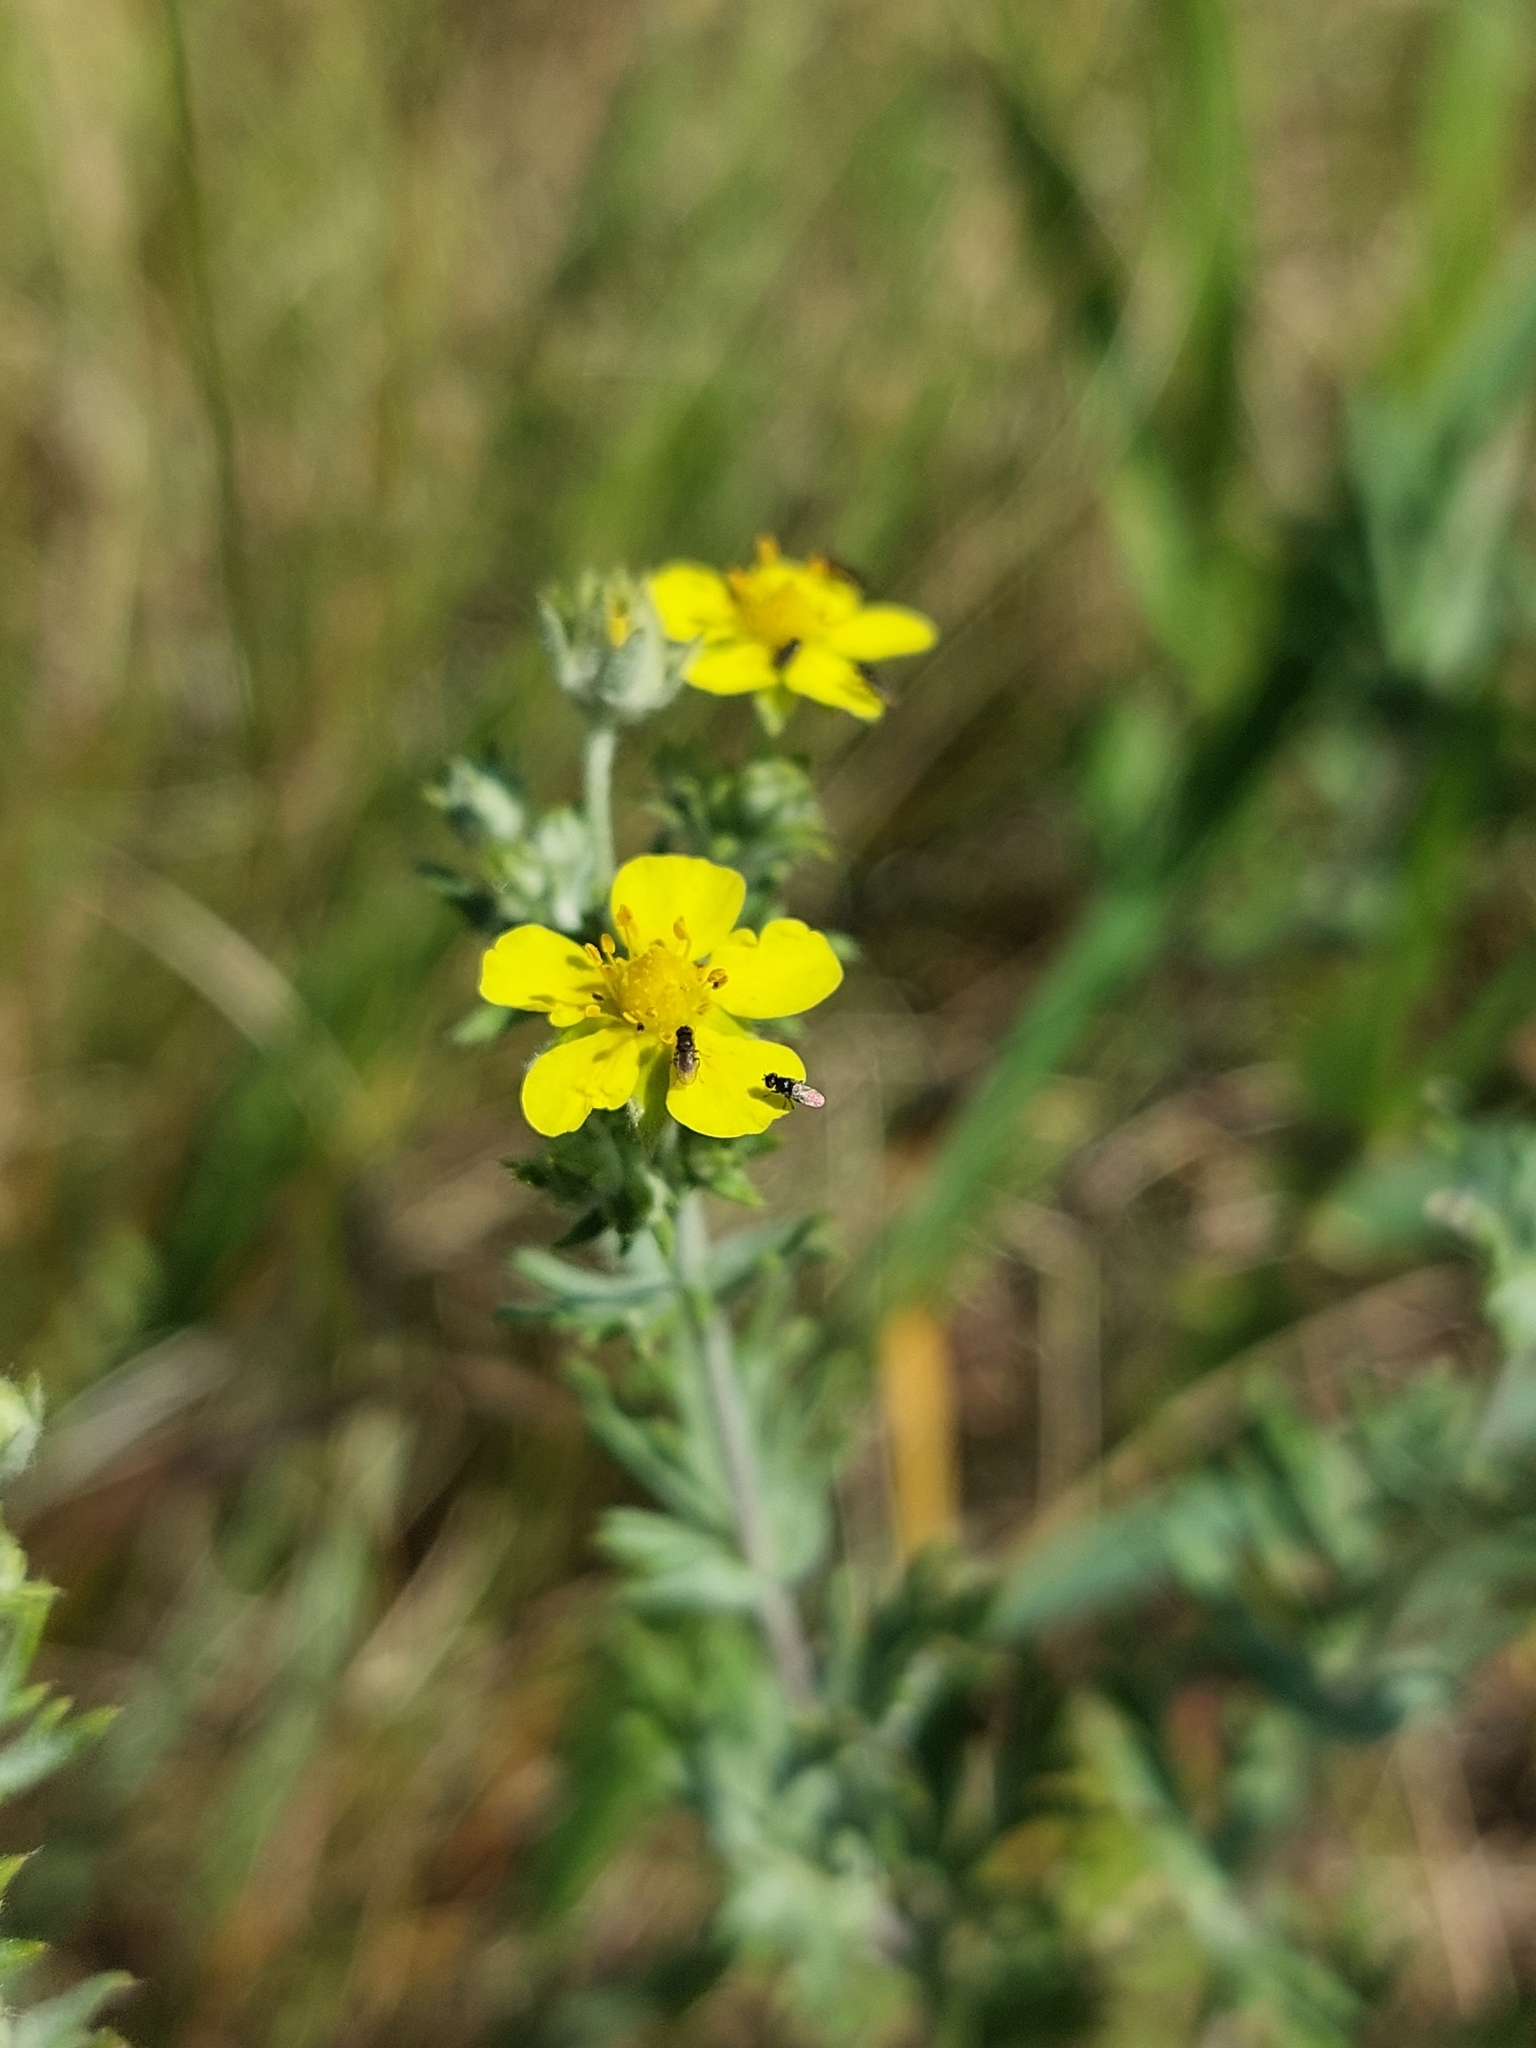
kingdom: Plantae
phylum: Tracheophyta
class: Magnoliopsida
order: Rosales
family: Rosaceae
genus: Potentilla
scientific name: Potentilla argentea
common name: Hoary cinquefoil
